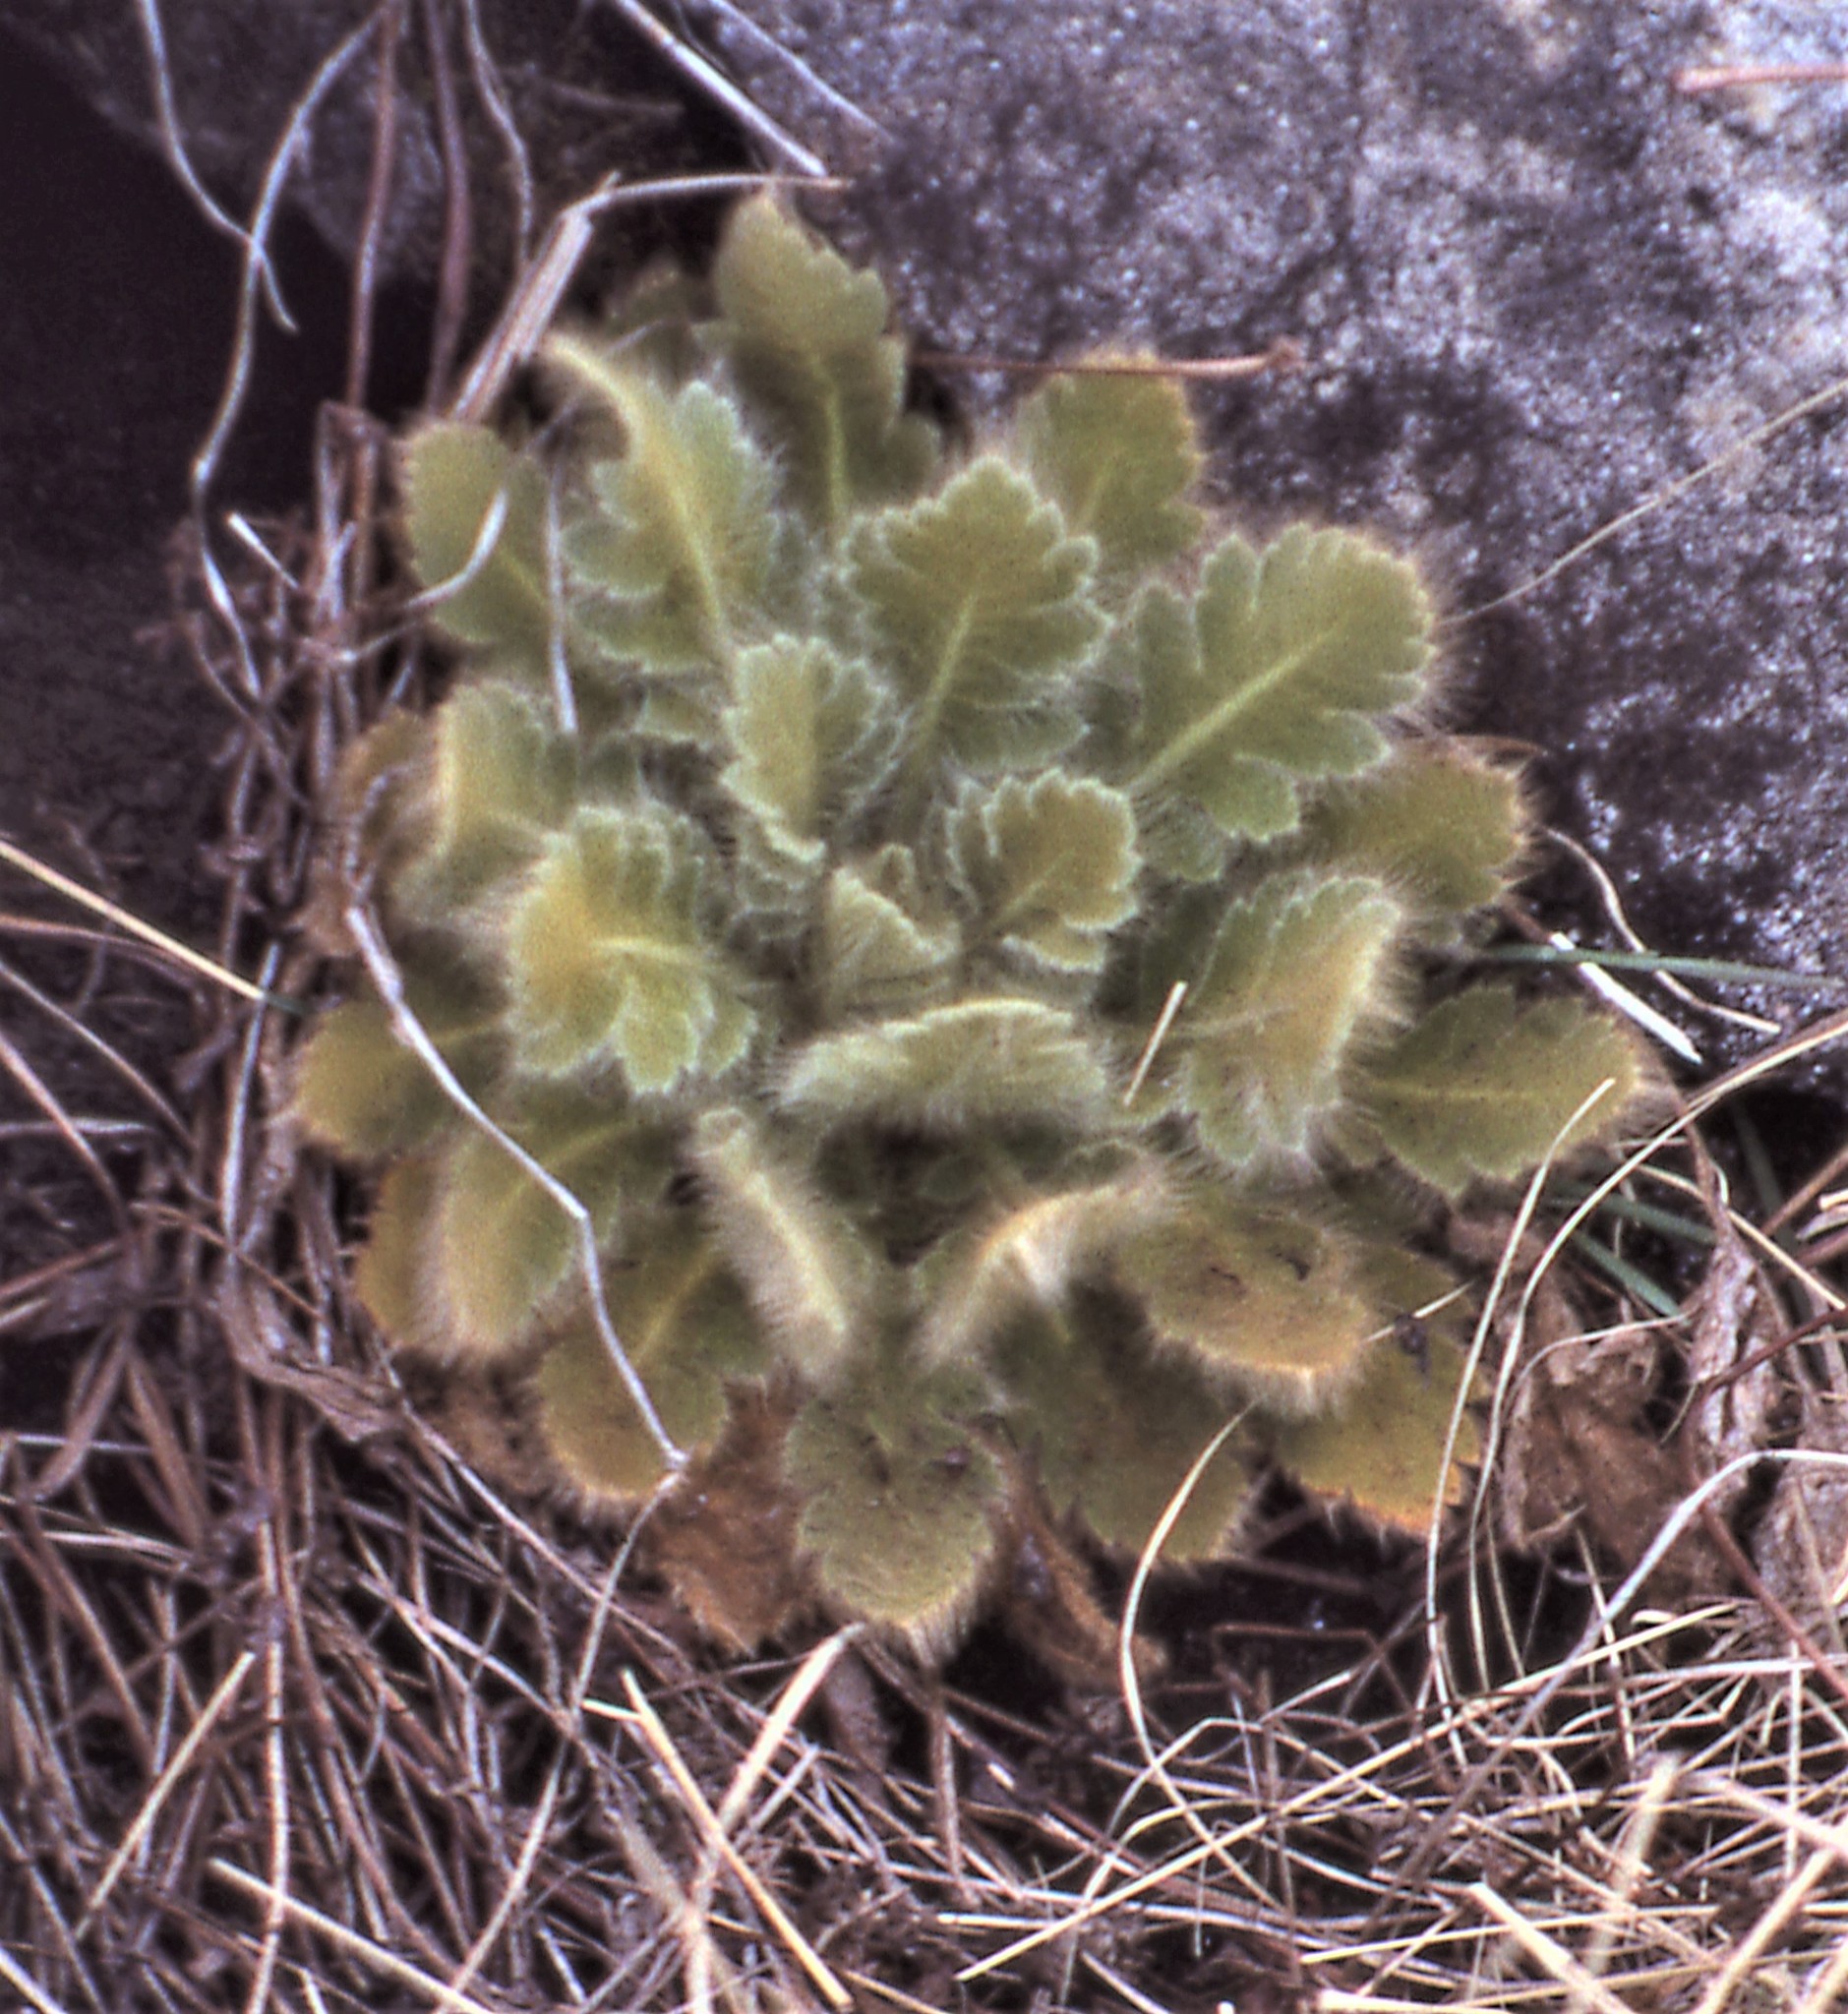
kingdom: Plantae
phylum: Tracheophyta
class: Magnoliopsida
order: Ranunculales
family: Papaveraceae
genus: Meconopsis
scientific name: Meconopsis paniculata
